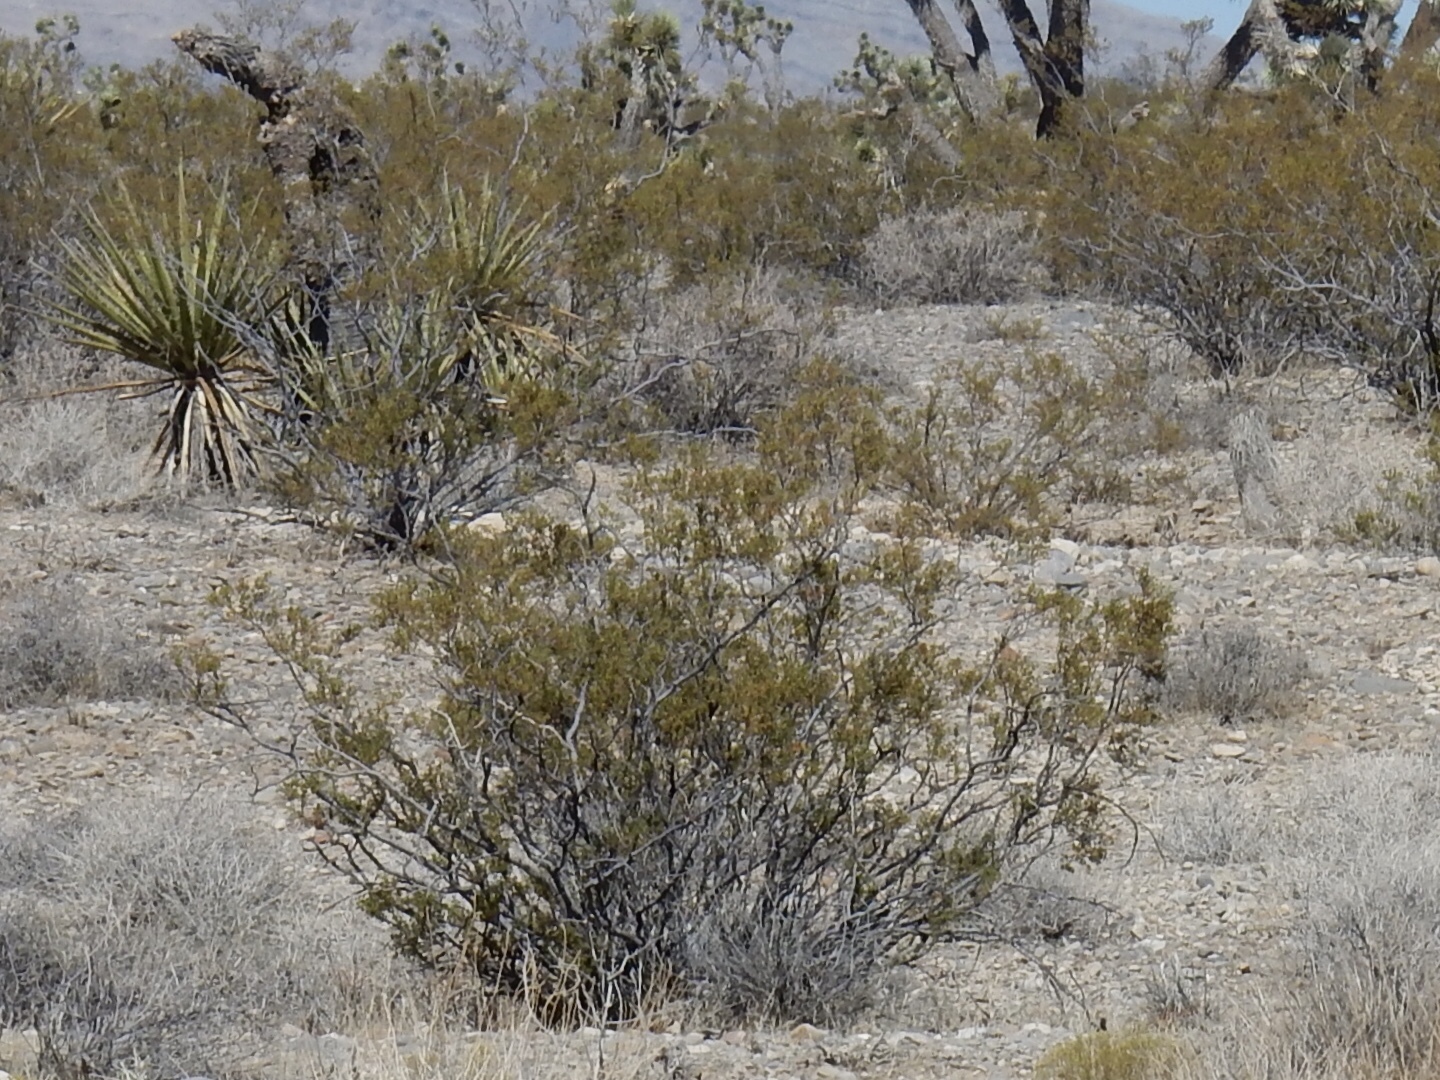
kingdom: Plantae
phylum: Tracheophyta
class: Magnoliopsida
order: Zygophyllales
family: Zygophyllaceae
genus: Larrea
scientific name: Larrea tridentata
